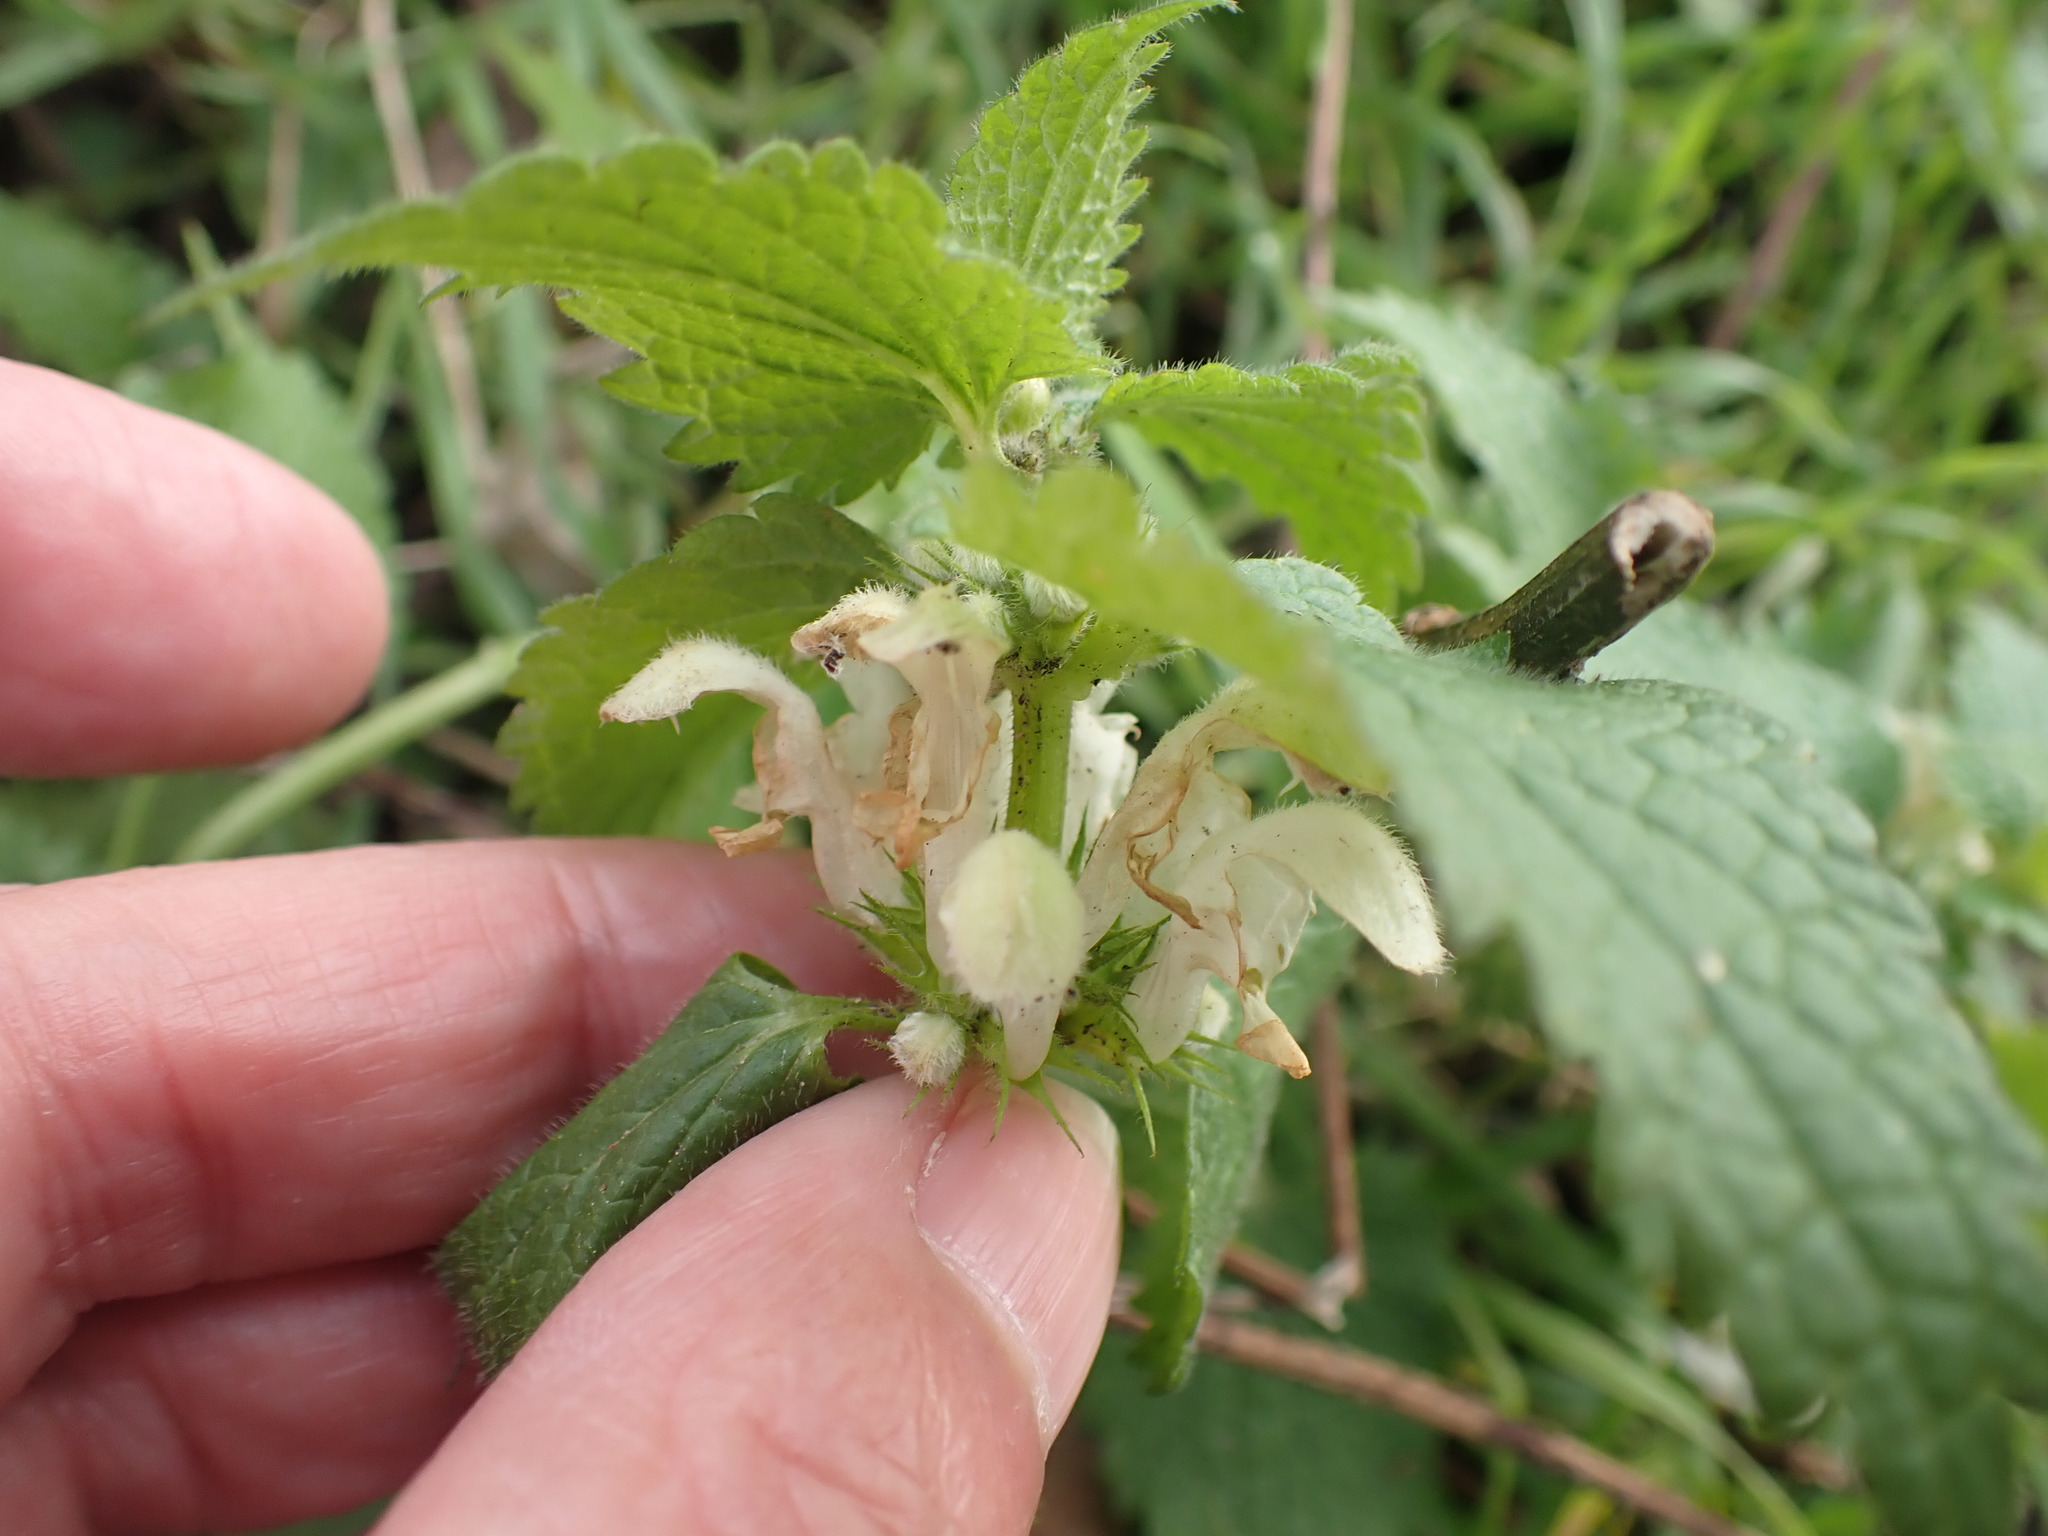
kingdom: Plantae
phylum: Tracheophyta
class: Magnoliopsida
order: Lamiales
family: Lamiaceae
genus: Lamium
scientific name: Lamium album
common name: White dead-nettle
